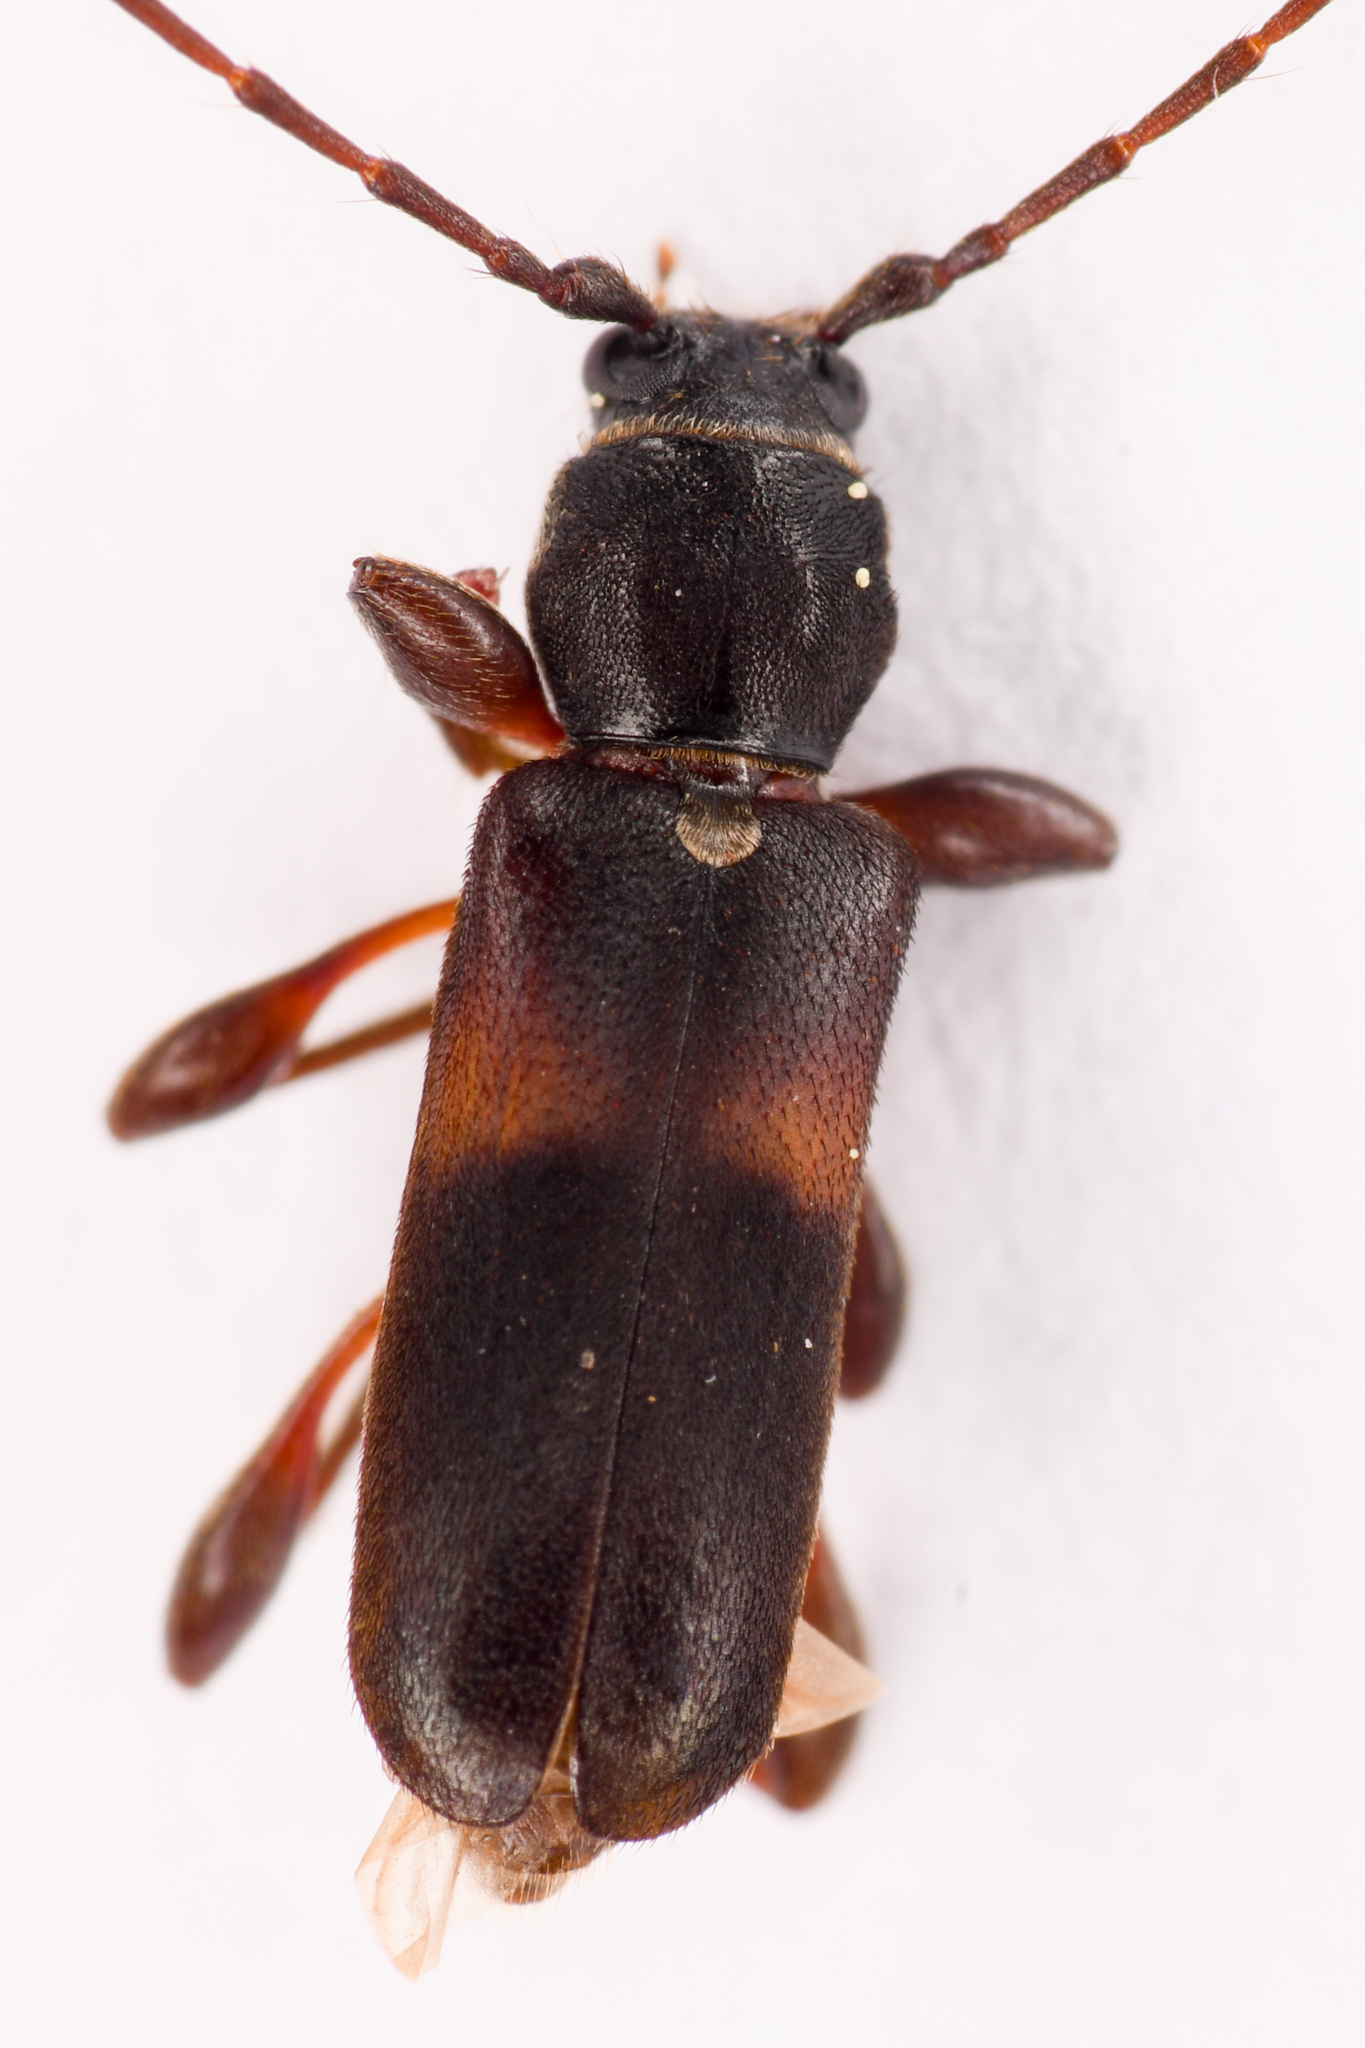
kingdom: Animalia
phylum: Arthropoda
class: Insecta
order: Coleoptera
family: Cerambycidae
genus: Phymatodes
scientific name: Phymatodes dimidiatus
